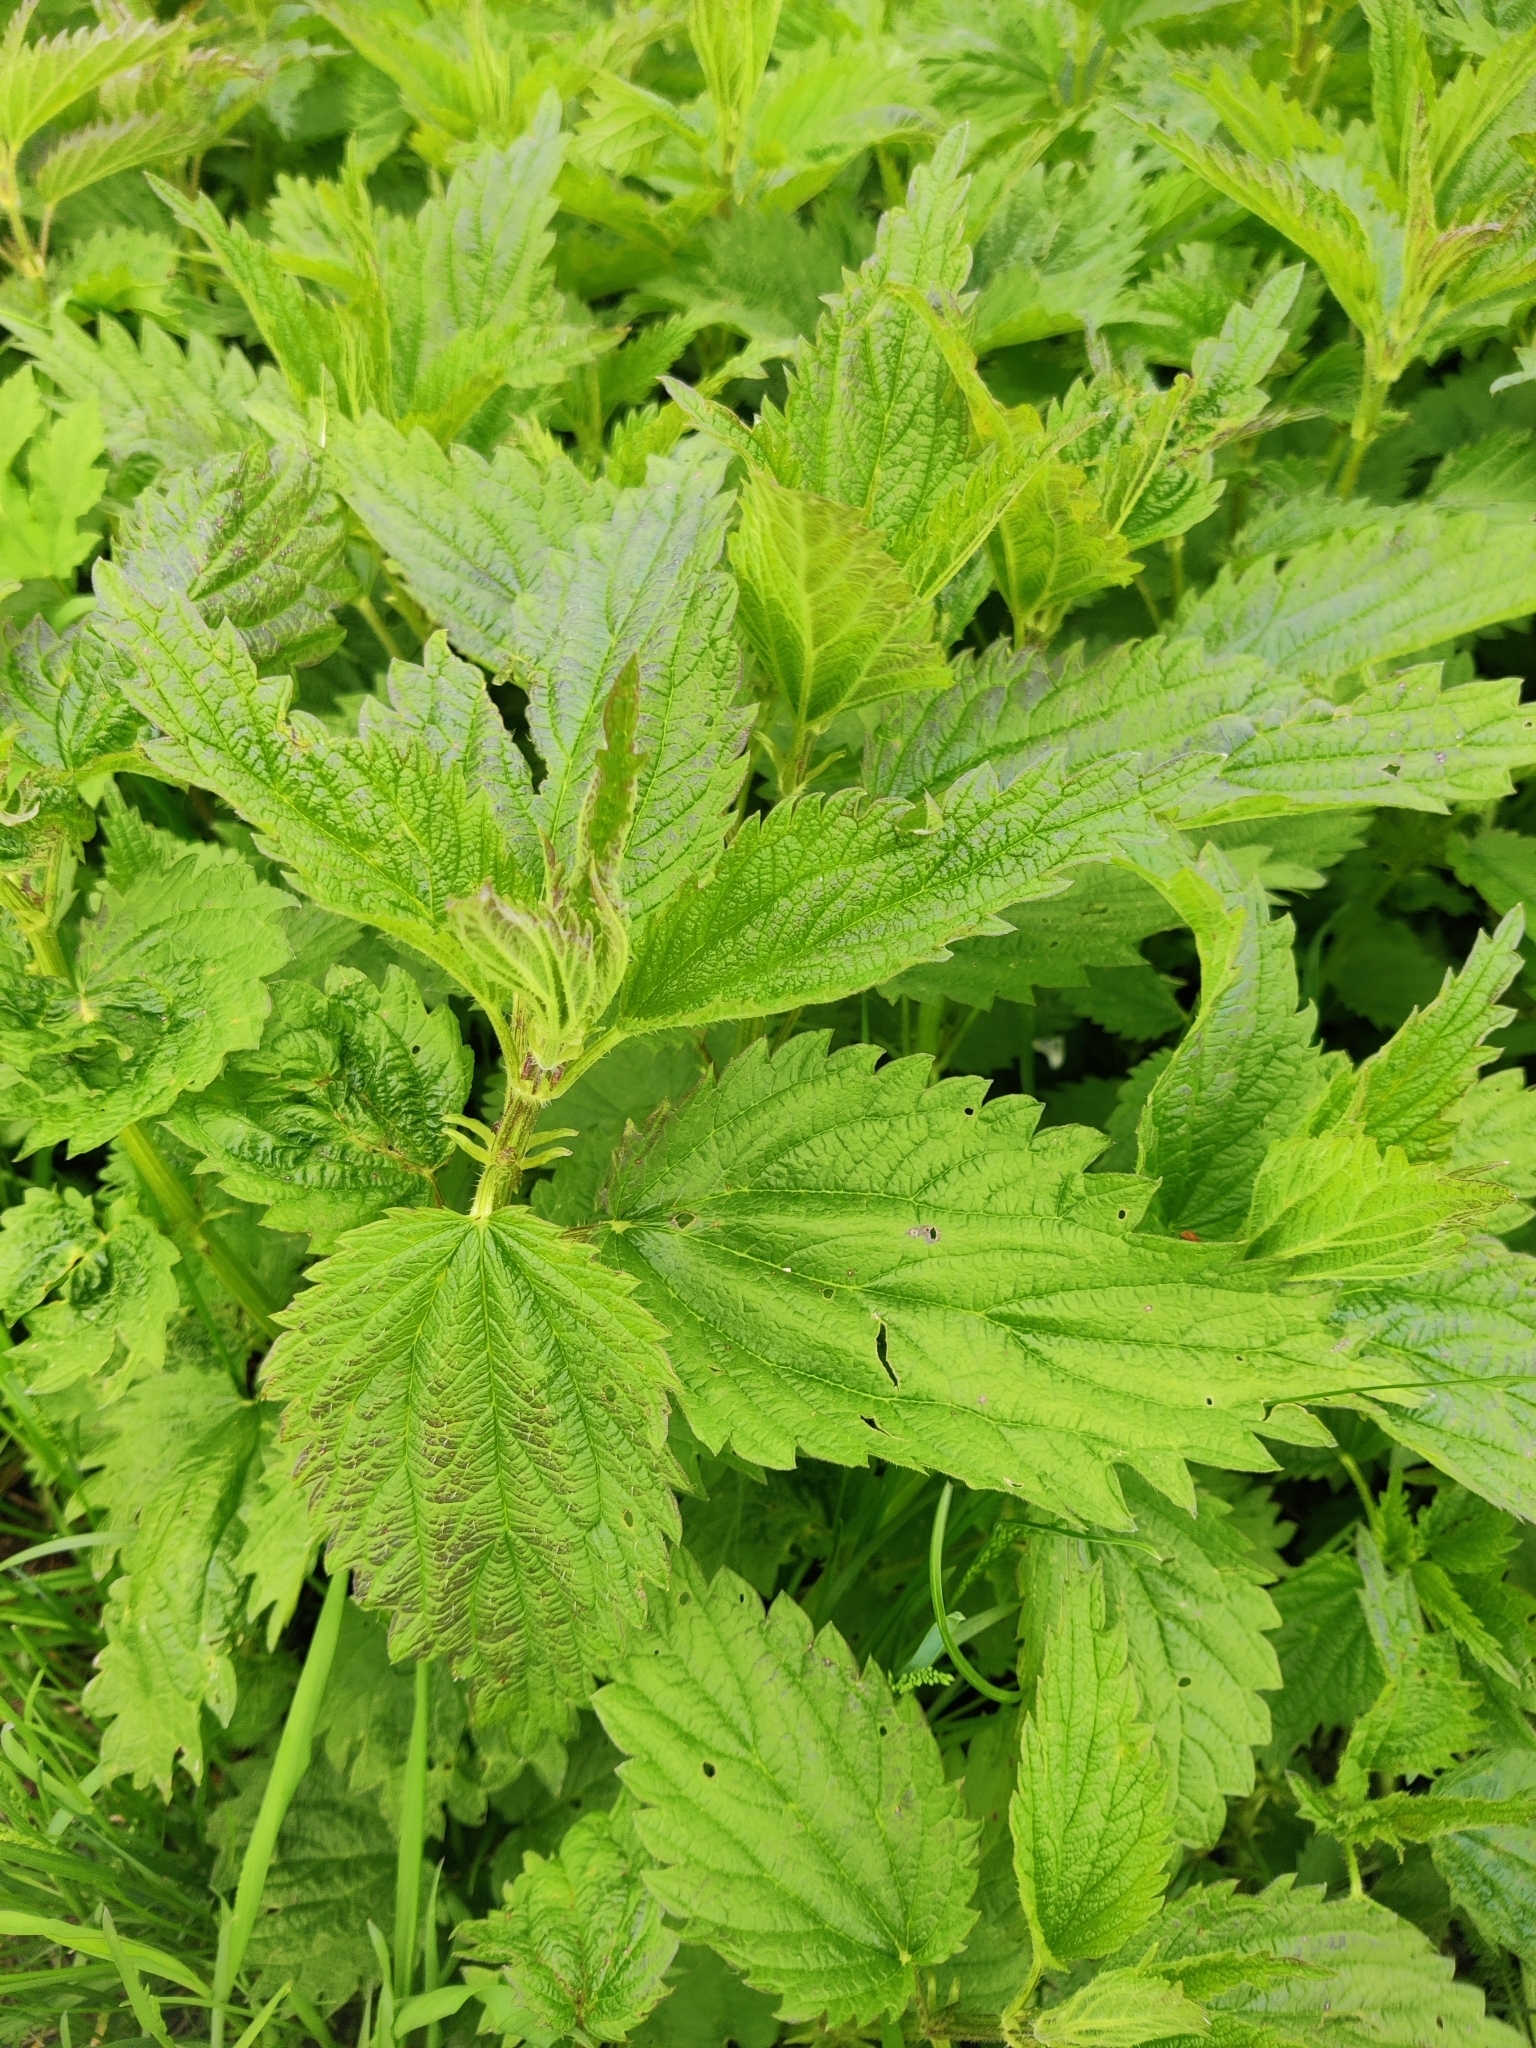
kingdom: Plantae
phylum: Tracheophyta
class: Magnoliopsida
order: Rosales
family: Urticaceae
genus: Urtica
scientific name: Urtica dioica
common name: Common nettle
